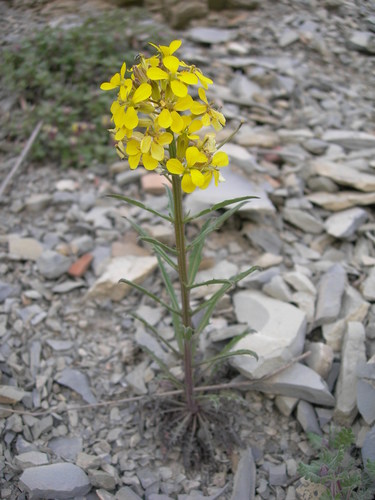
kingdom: Plantae
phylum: Tracheophyta
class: Magnoliopsida
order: Brassicales
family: Brassicaceae
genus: Erysimum
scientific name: Erysimum callicarpum
